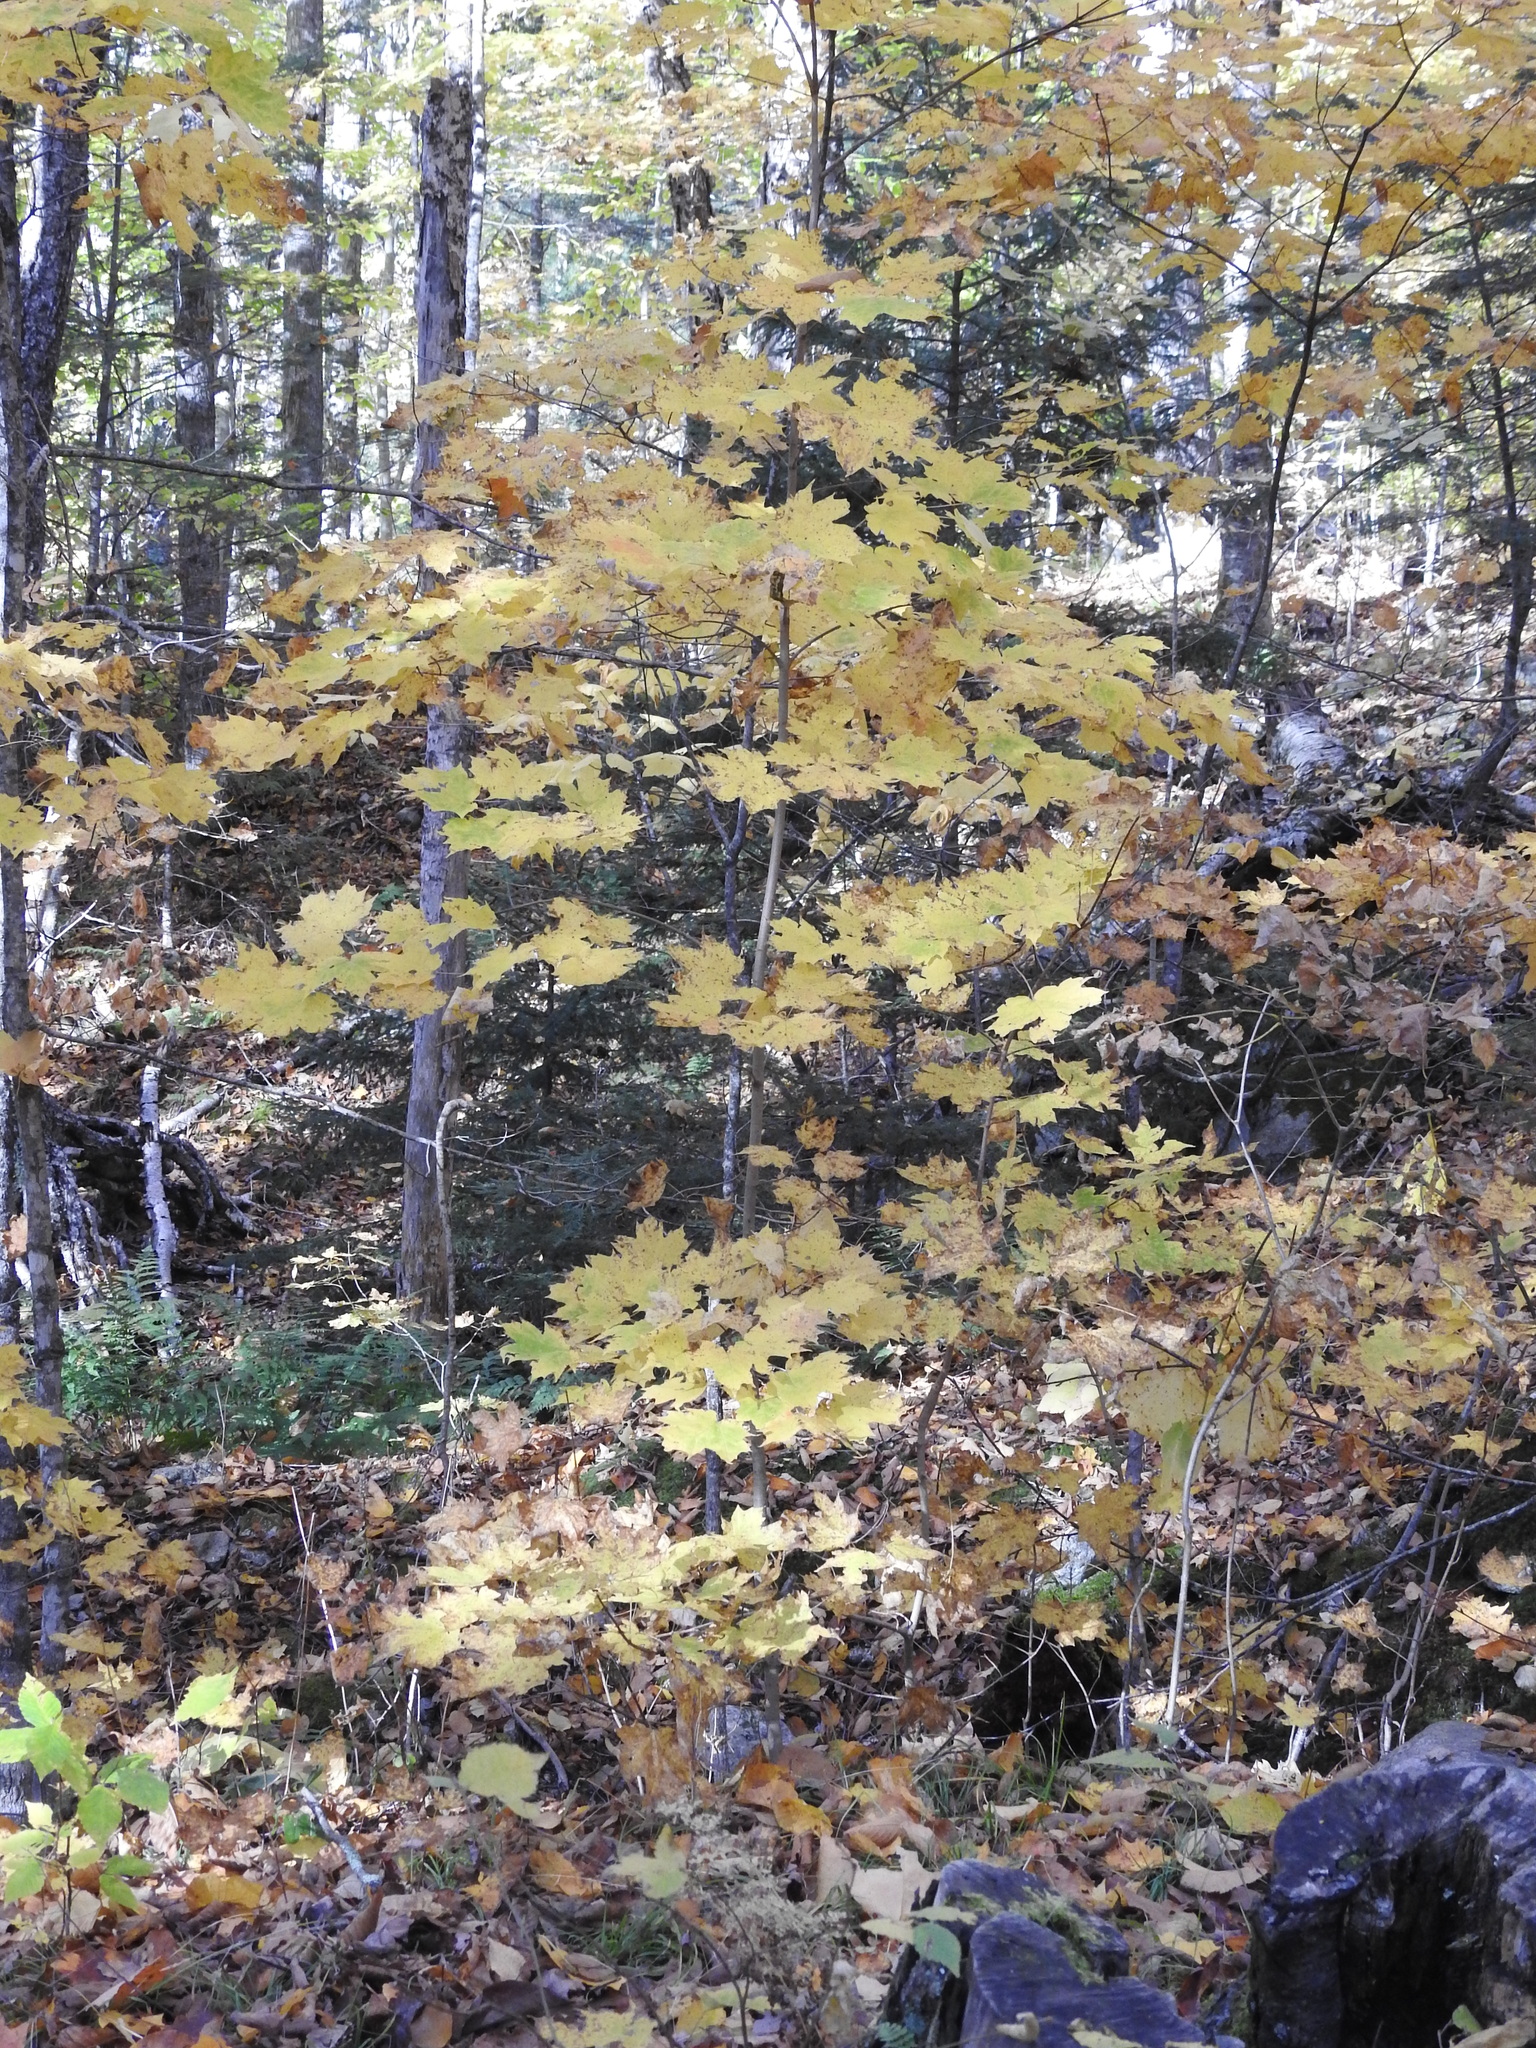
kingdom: Plantae
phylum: Tracheophyta
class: Magnoliopsida
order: Sapindales
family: Sapindaceae
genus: Acer
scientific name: Acer saccharum
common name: Sugar maple
